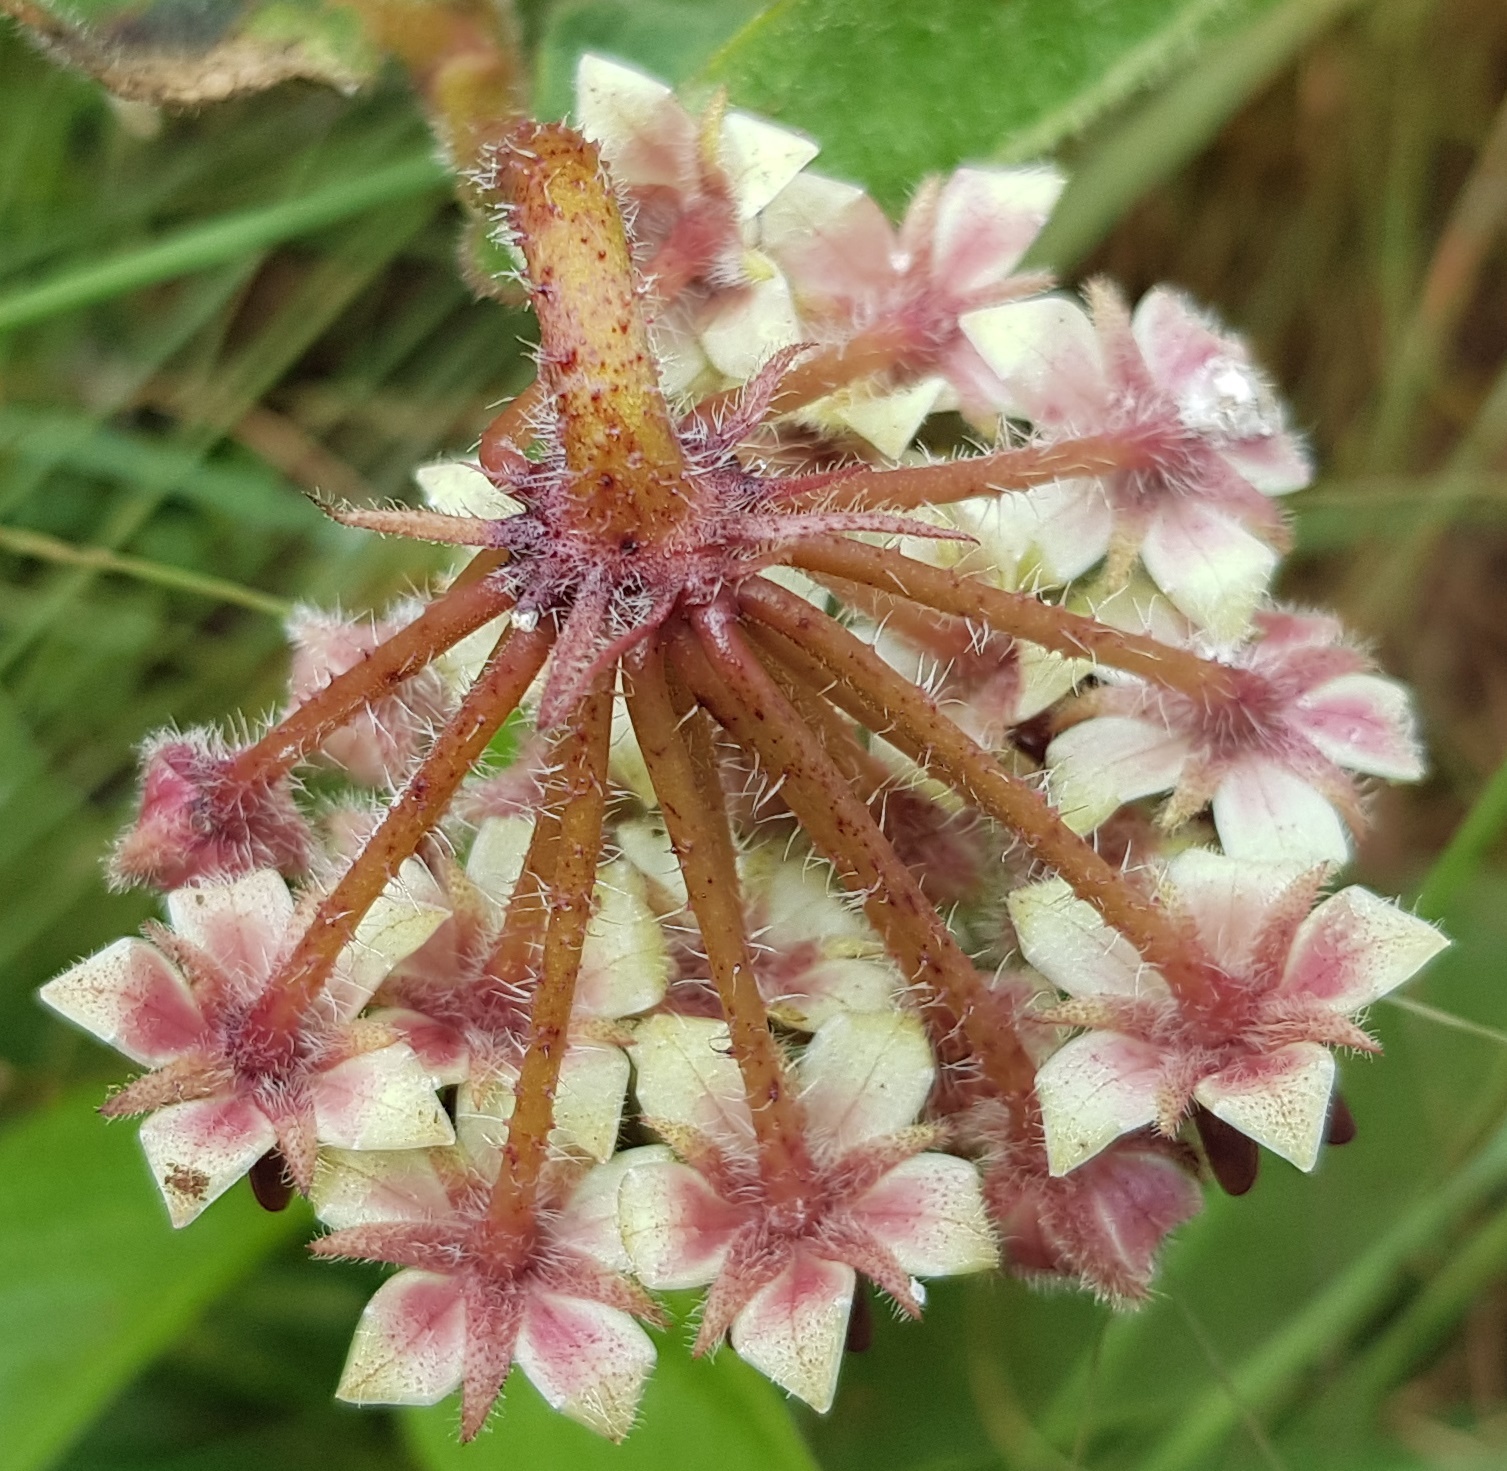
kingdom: Plantae
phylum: Tracheophyta
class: Magnoliopsida
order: Gentianales
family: Apocynaceae
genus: Asclepias
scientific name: Asclepias albens
